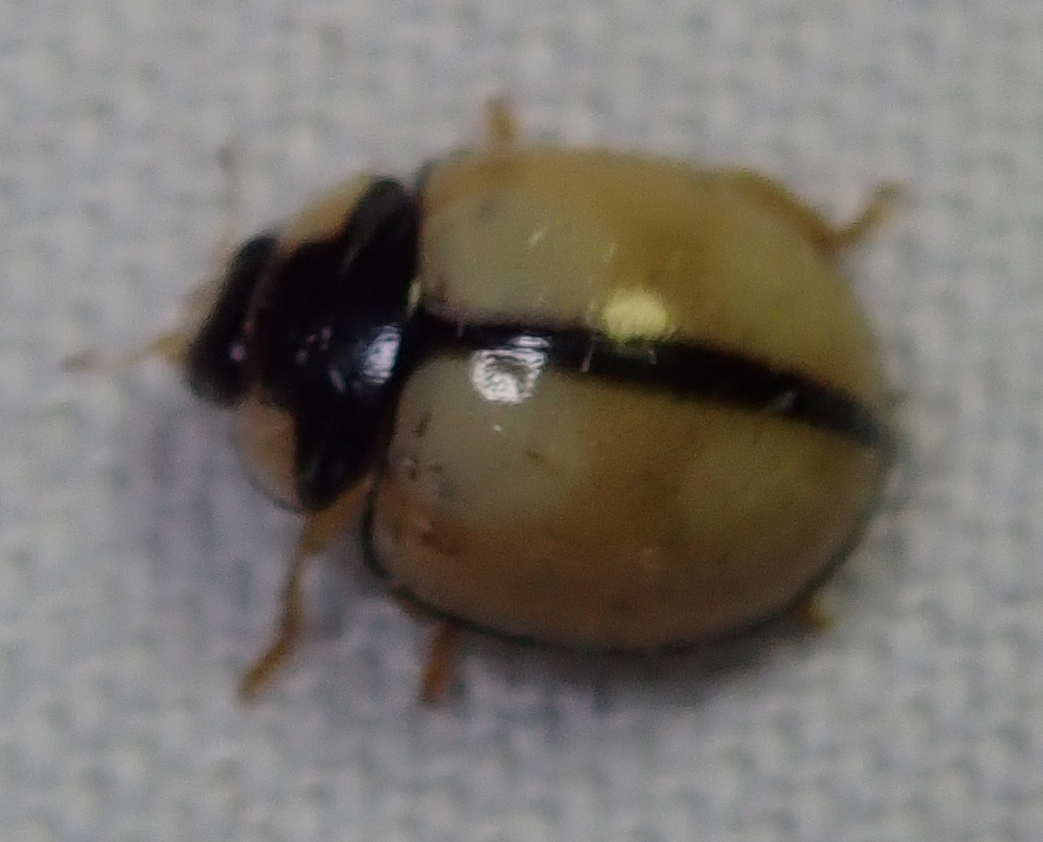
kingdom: Animalia
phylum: Arthropoda
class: Insecta
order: Coleoptera
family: Coccinellidae
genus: Cheilomenes
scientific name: Cheilomenes propinqua
